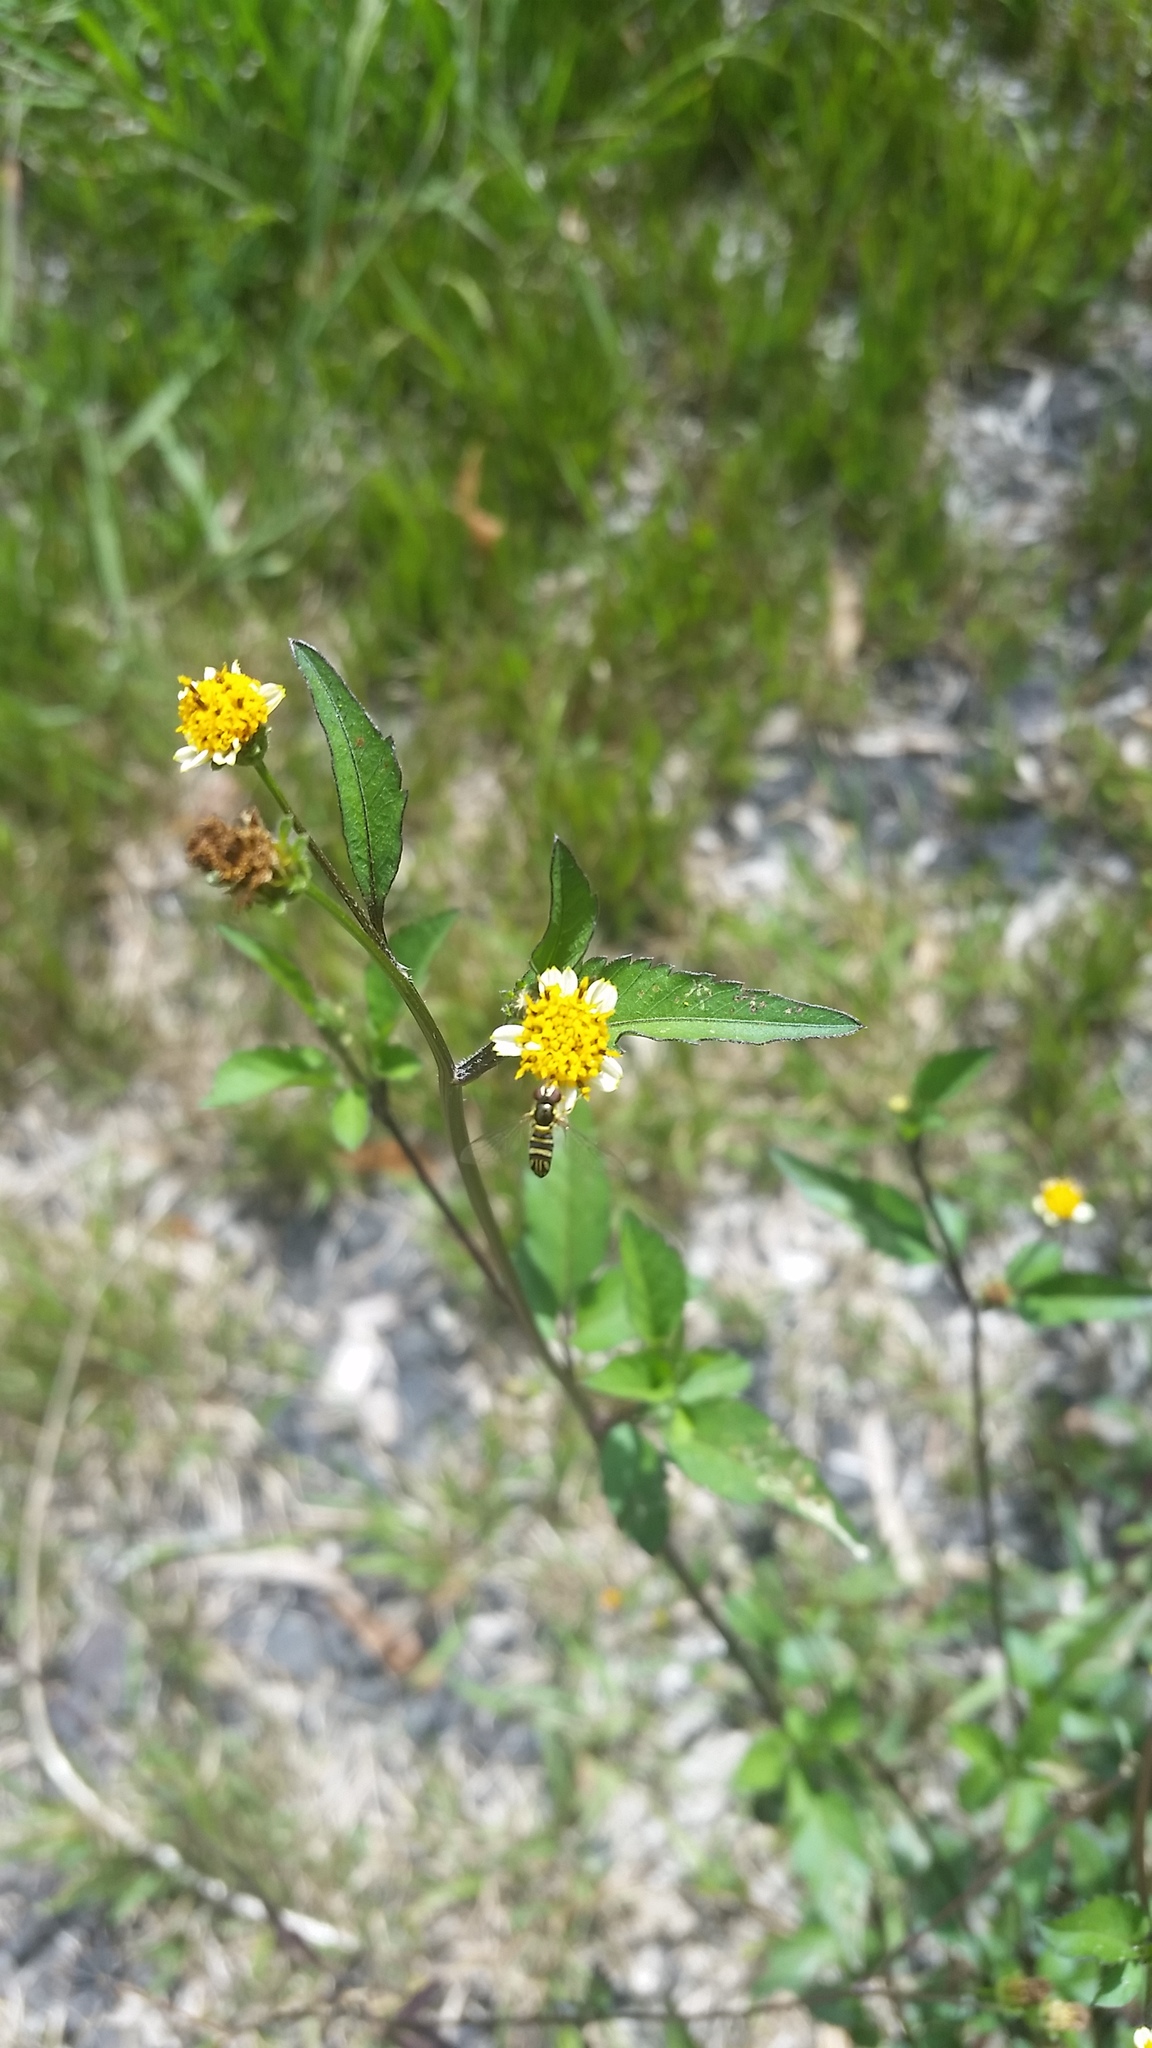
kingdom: Plantae
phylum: Tracheophyta
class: Magnoliopsida
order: Asterales
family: Asteraceae
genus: Bidens
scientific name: Bidens alba
